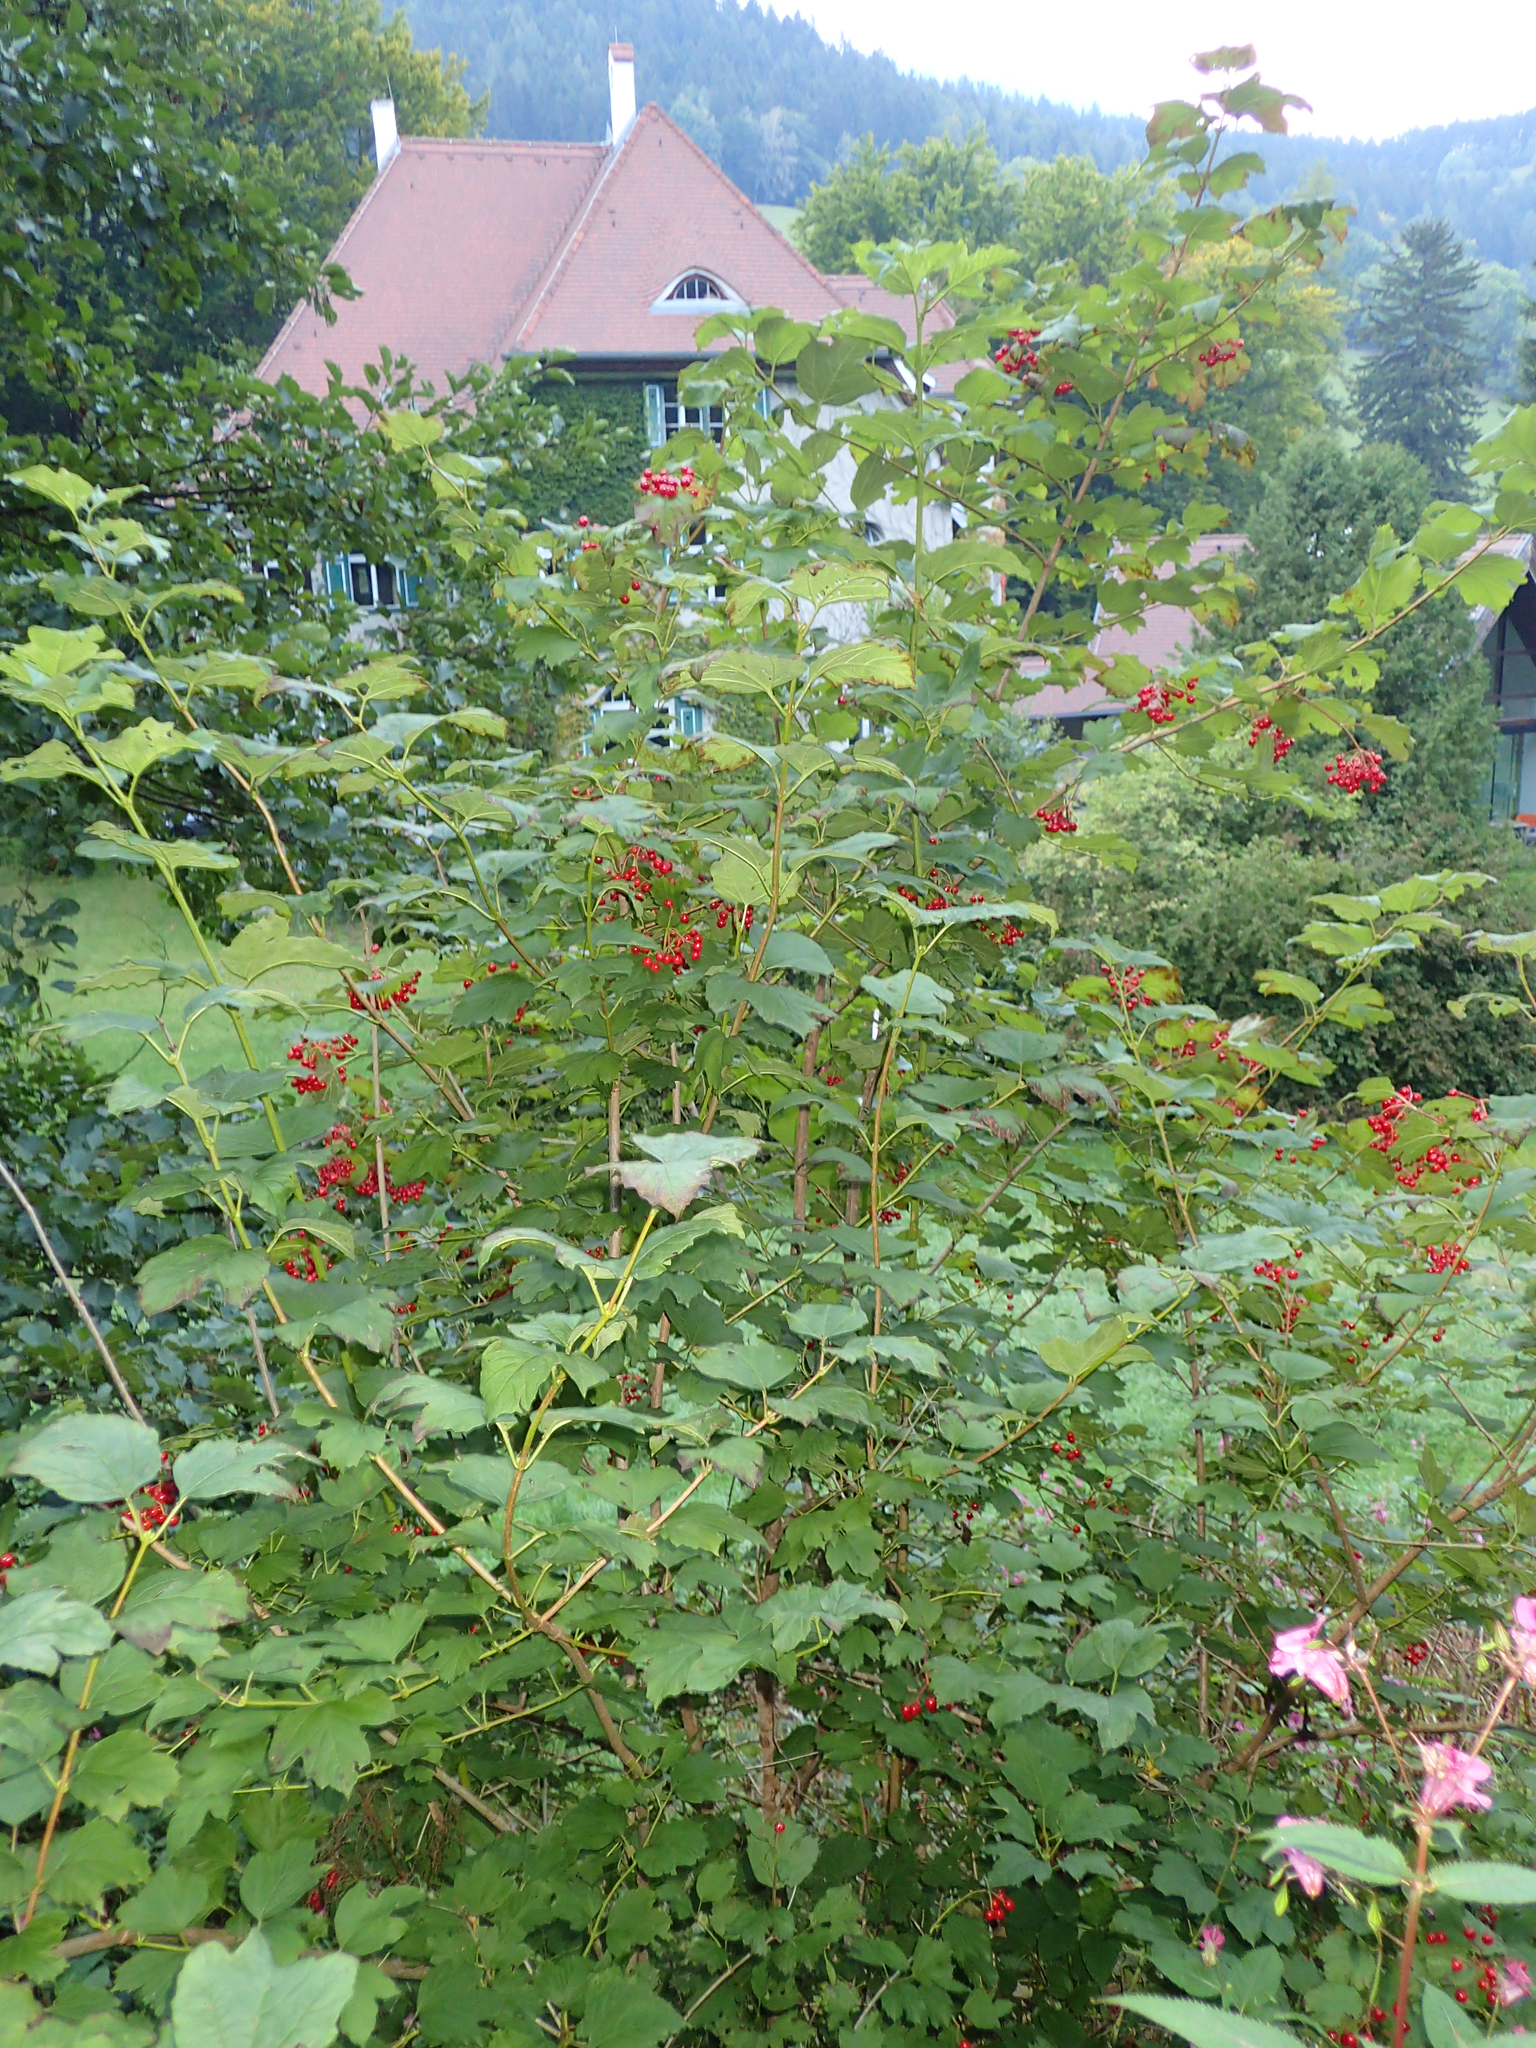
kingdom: Plantae
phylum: Tracheophyta
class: Magnoliopsida
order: Dipsacales
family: Viburnaceae
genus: Viburnum
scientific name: Viburnum opulus
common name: Guelder-rose
